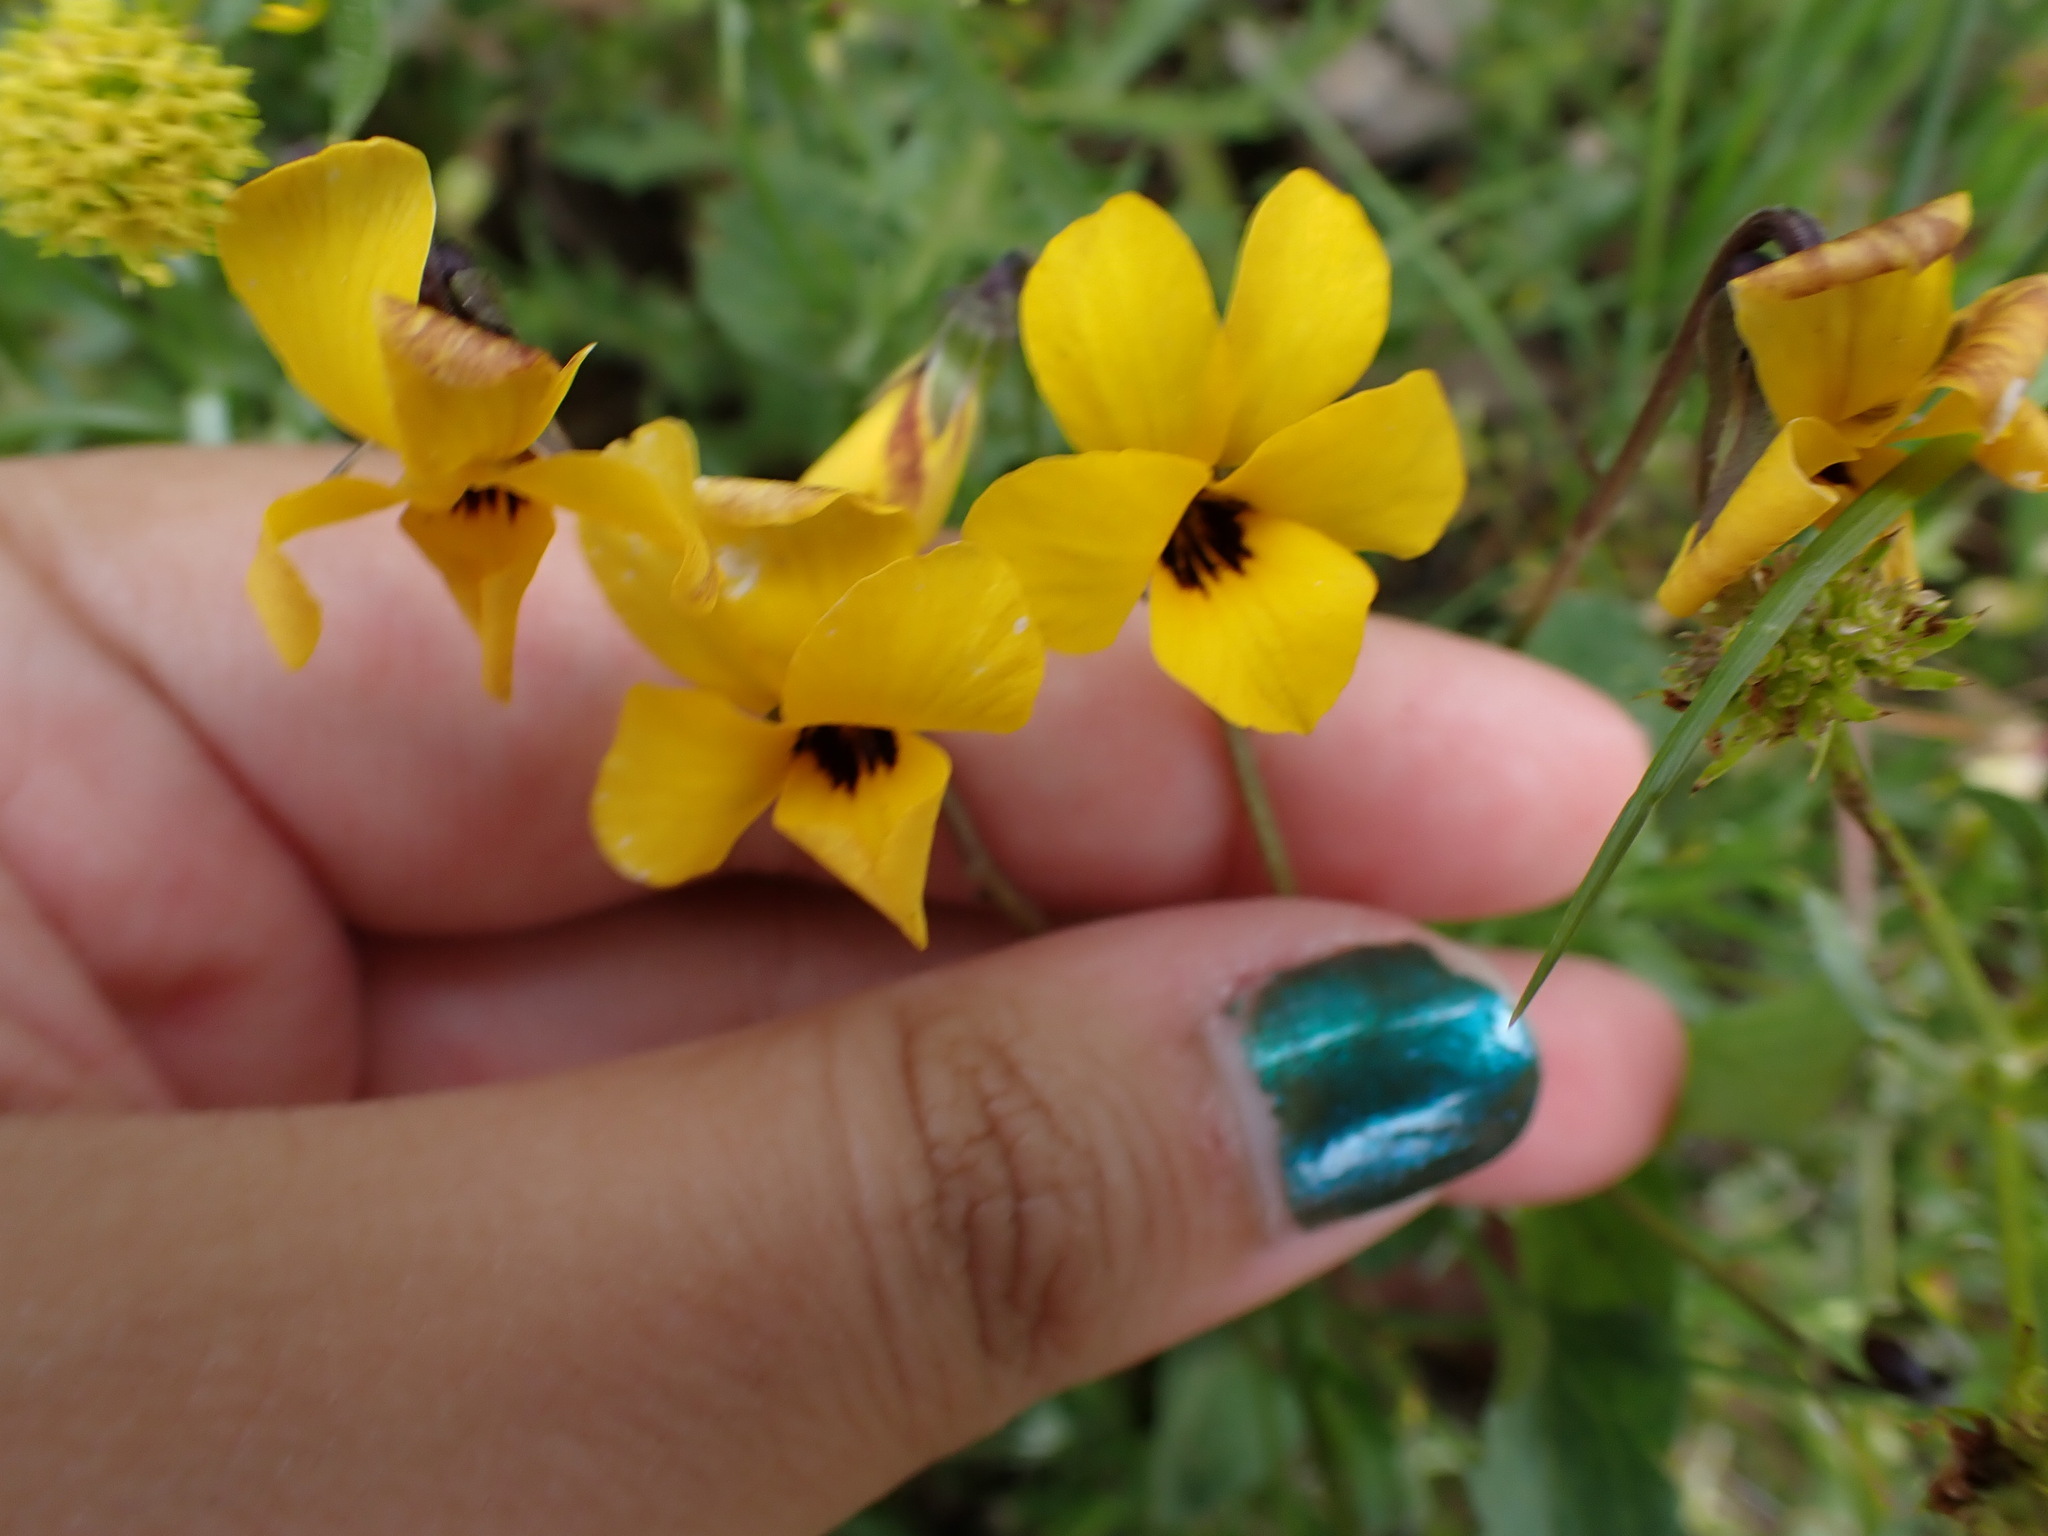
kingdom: Plantae
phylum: Tracheophyta
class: Magnoliopsida
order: Malpighiales
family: Violaceae
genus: Viola
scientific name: Viola pedunculata
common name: California golden violet
